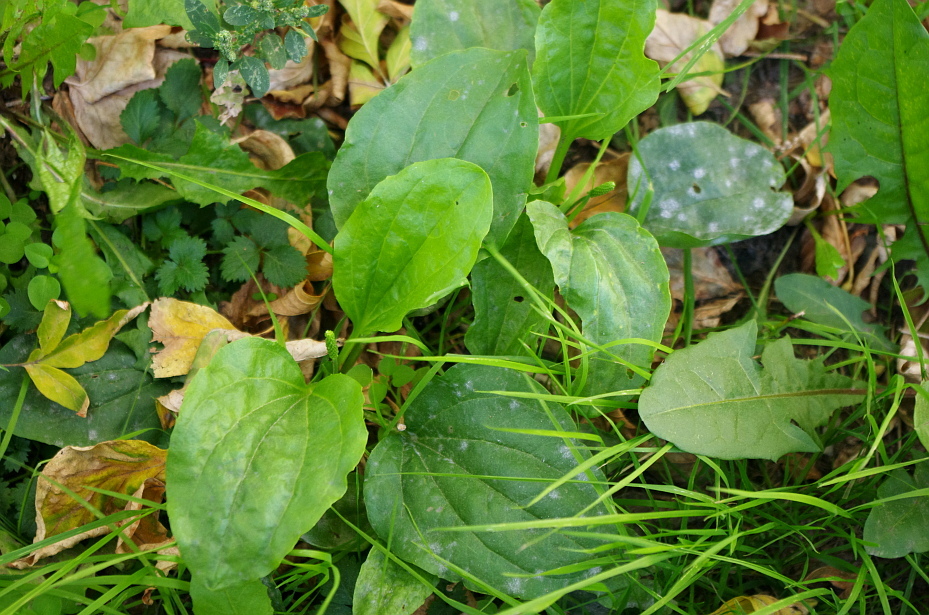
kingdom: Plantae
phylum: Tracheophyta
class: Magnoliopsida
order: Lamiales
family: Plantaginaceae
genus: Plantago
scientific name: Plantago major
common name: Common plantain
